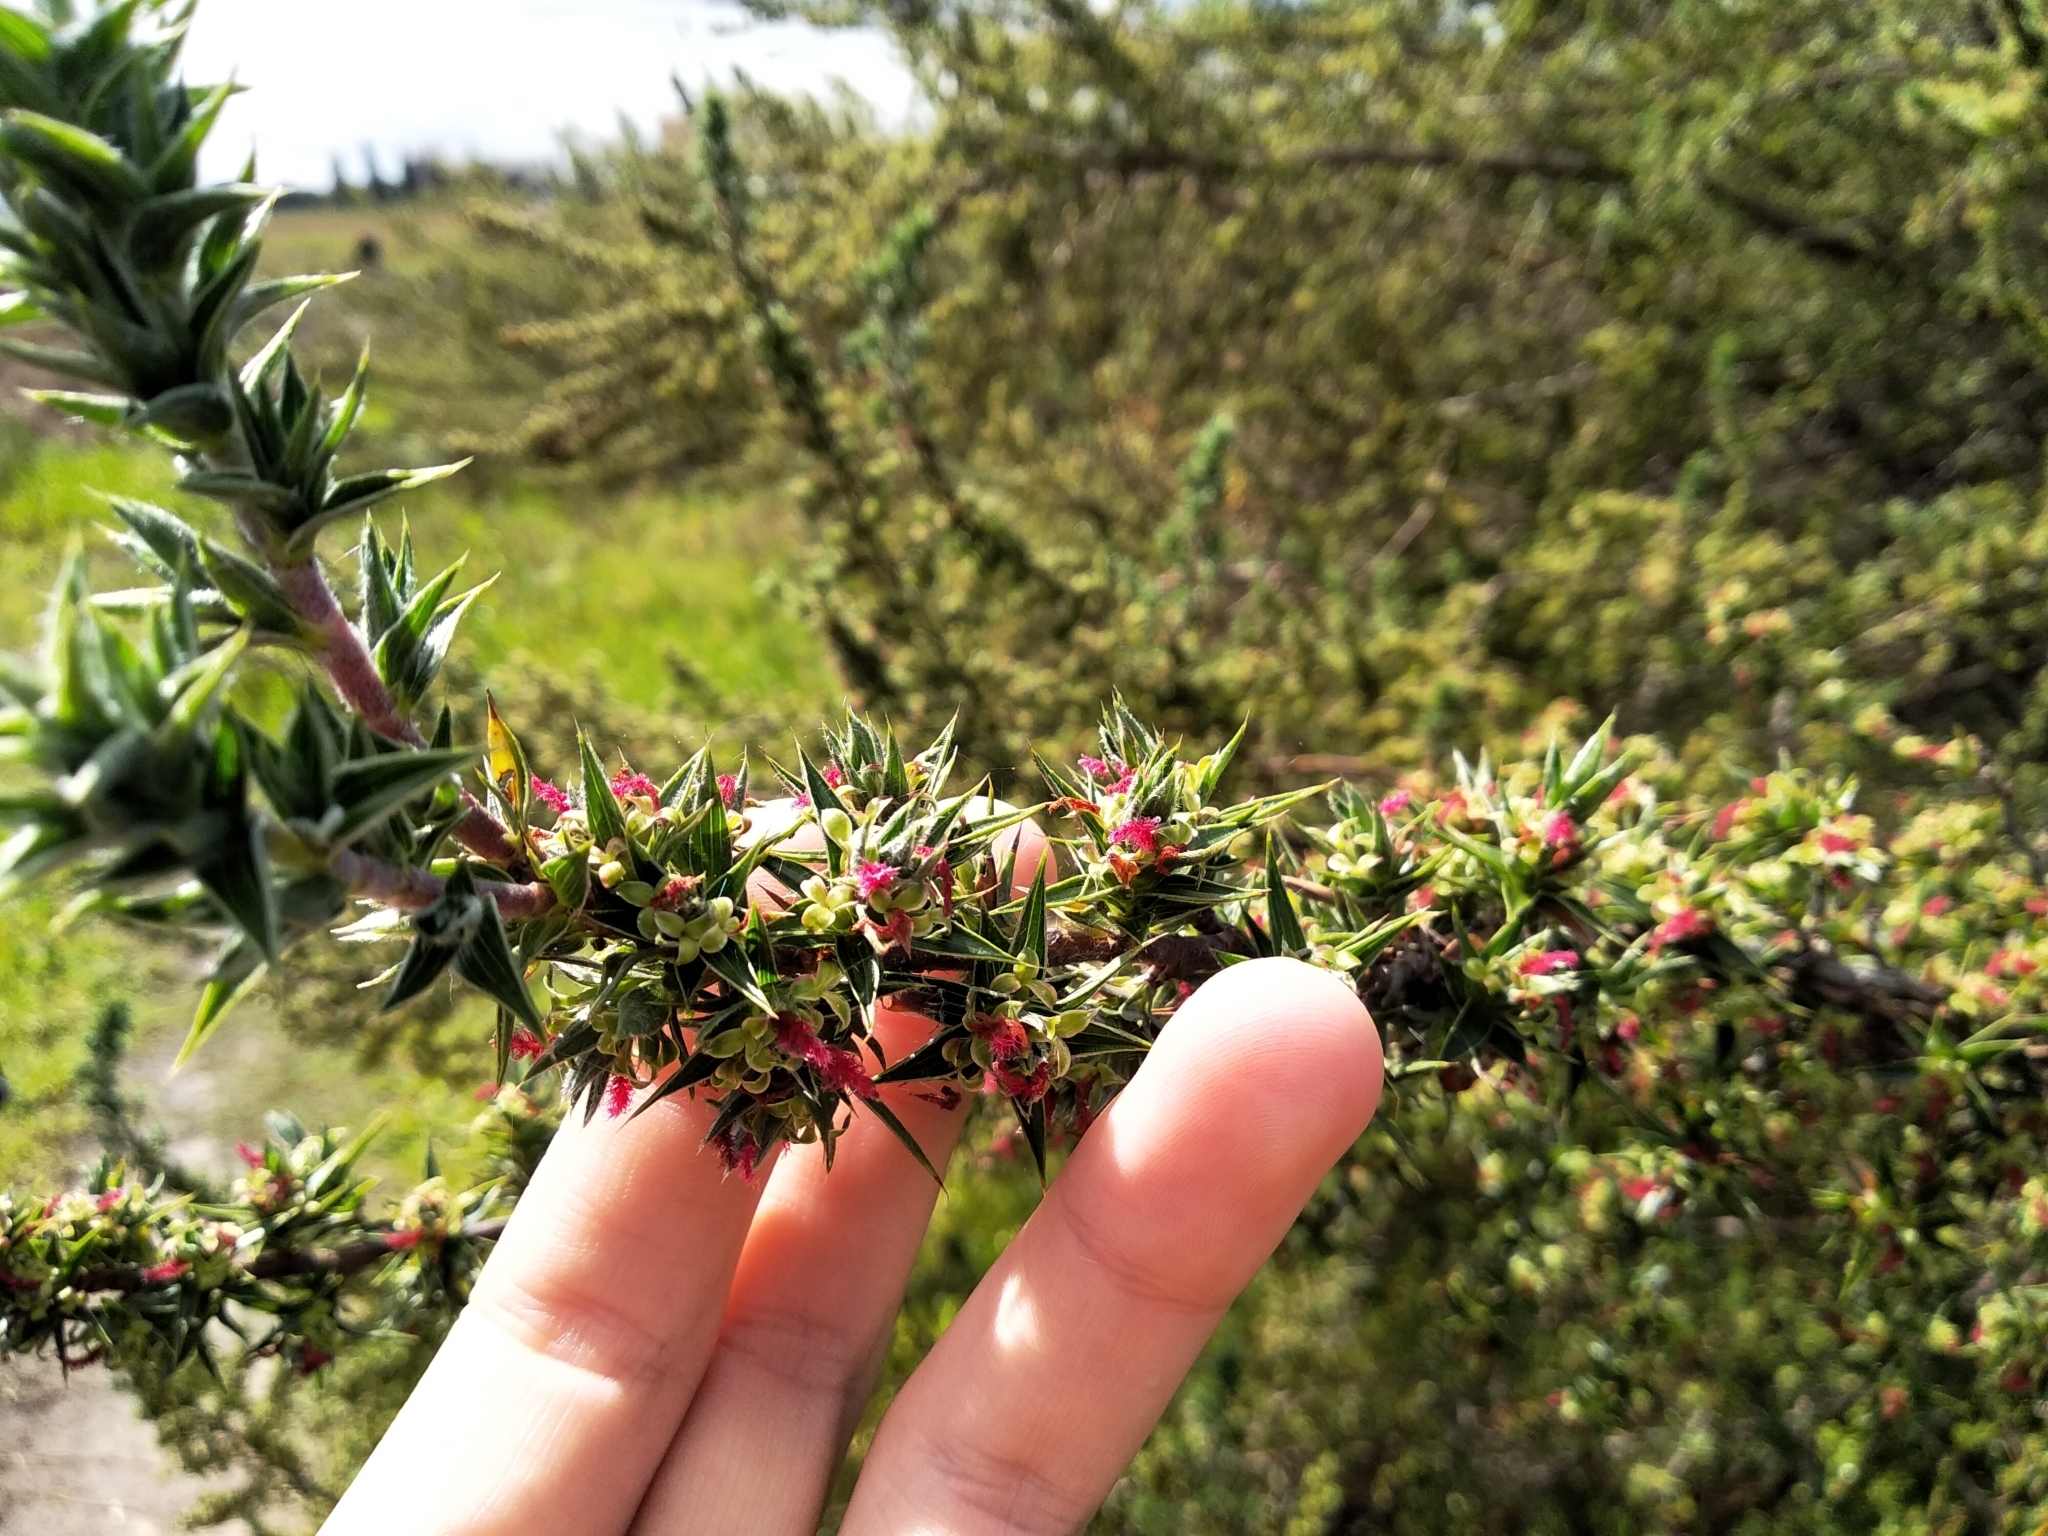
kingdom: Plantae
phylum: Tracheophyta
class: Magnoliopsida
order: Rosales
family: Rosaceae
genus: Cliffortia
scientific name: Cliffortia ruscifolia
